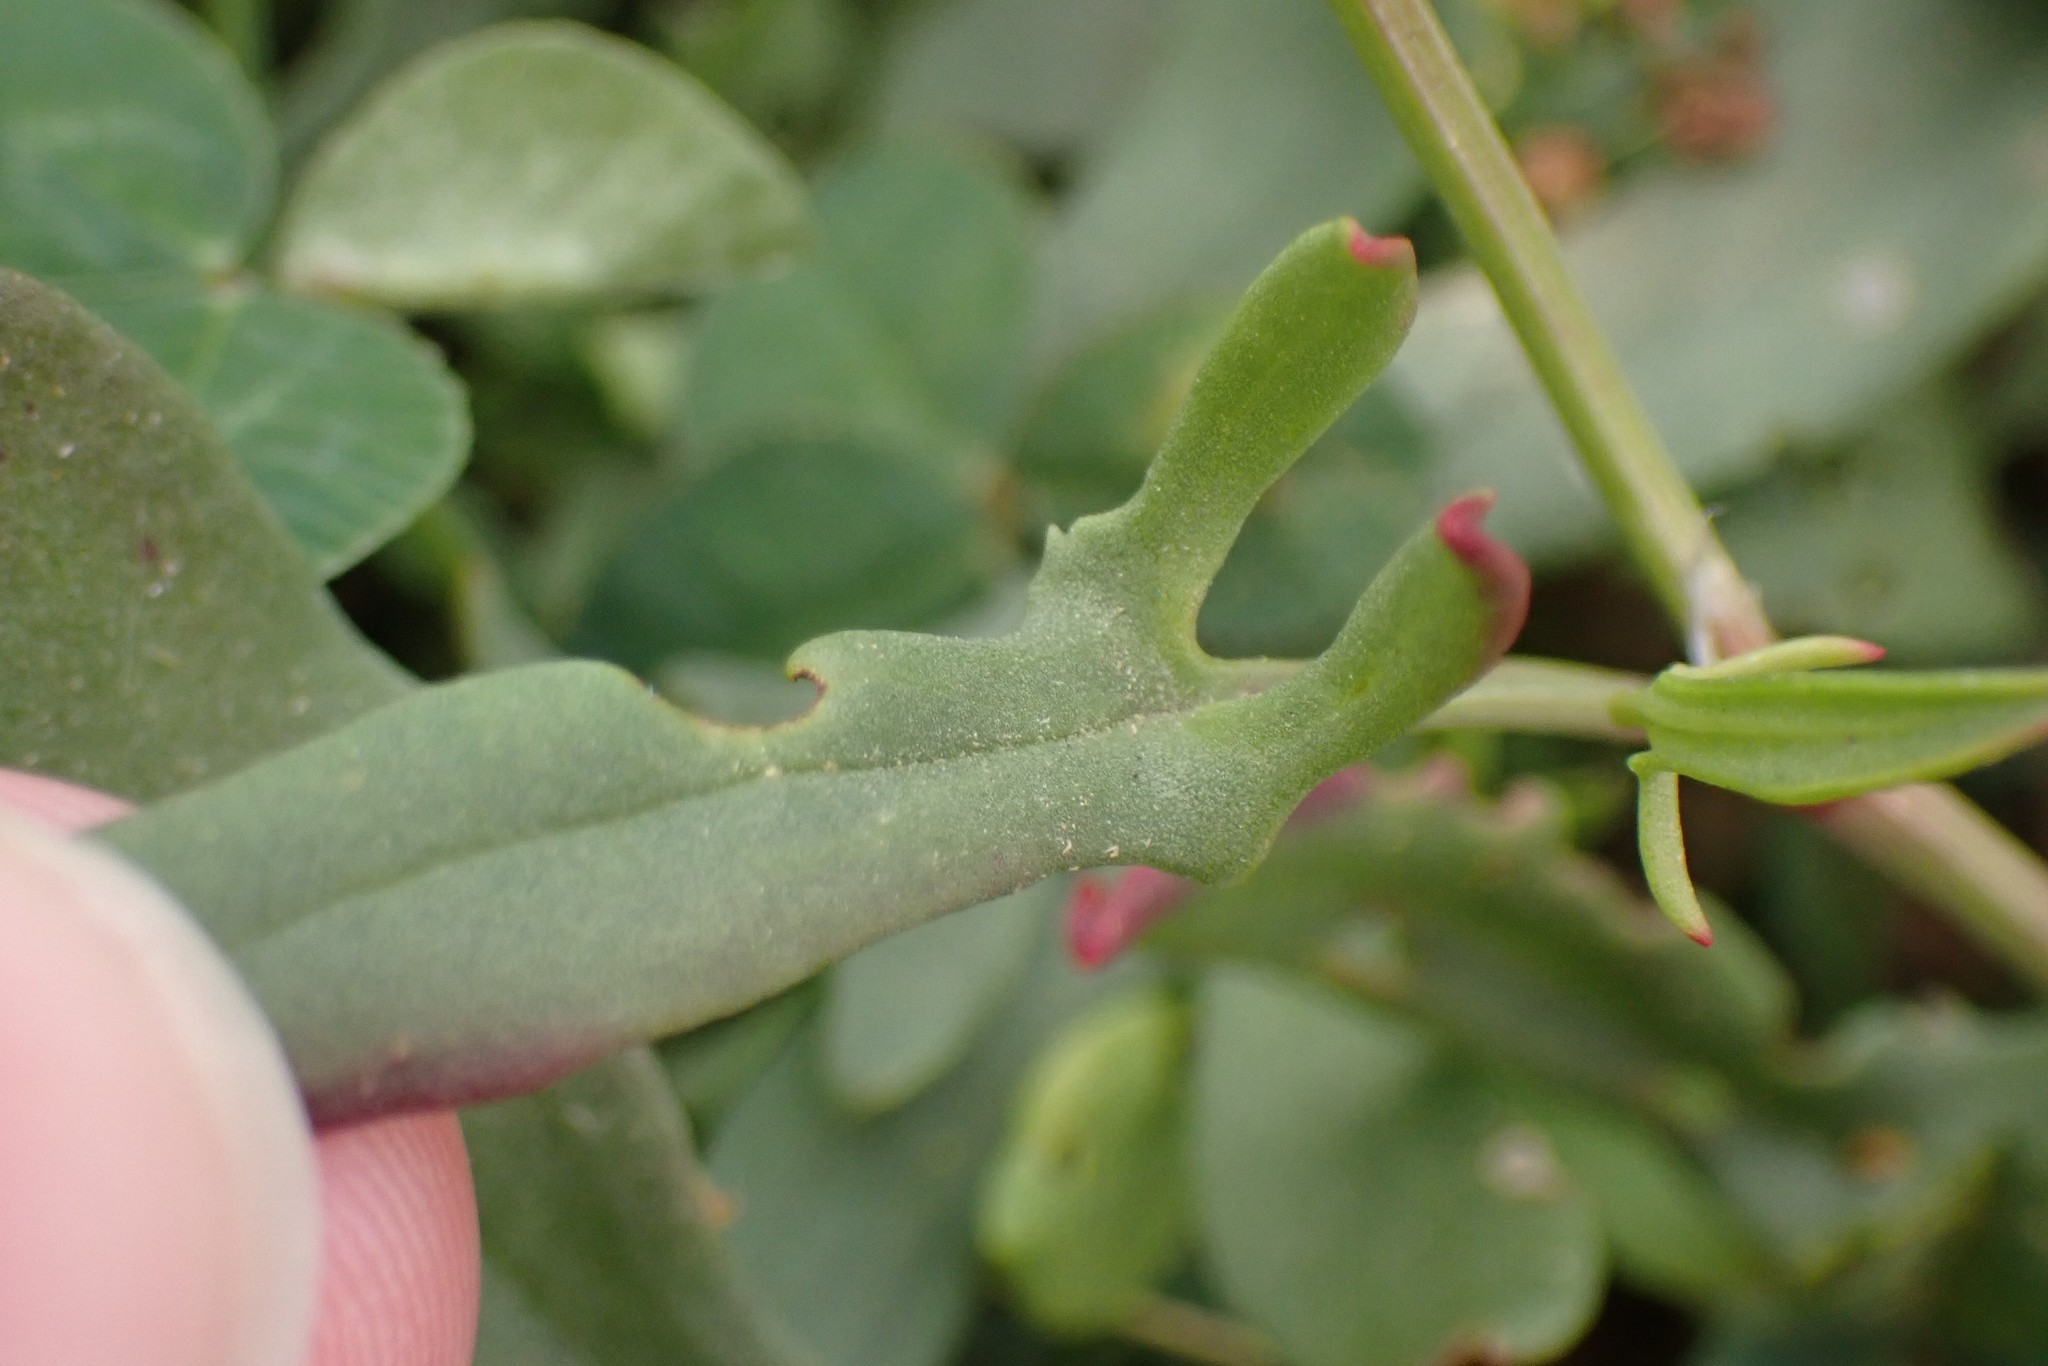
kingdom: Plantae
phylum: Tracheophyta
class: Magnoliopsida
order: Caryophyllales
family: Polygonaceae
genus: Rumex
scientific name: Rumex acetosella
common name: Common sheep sorrel
